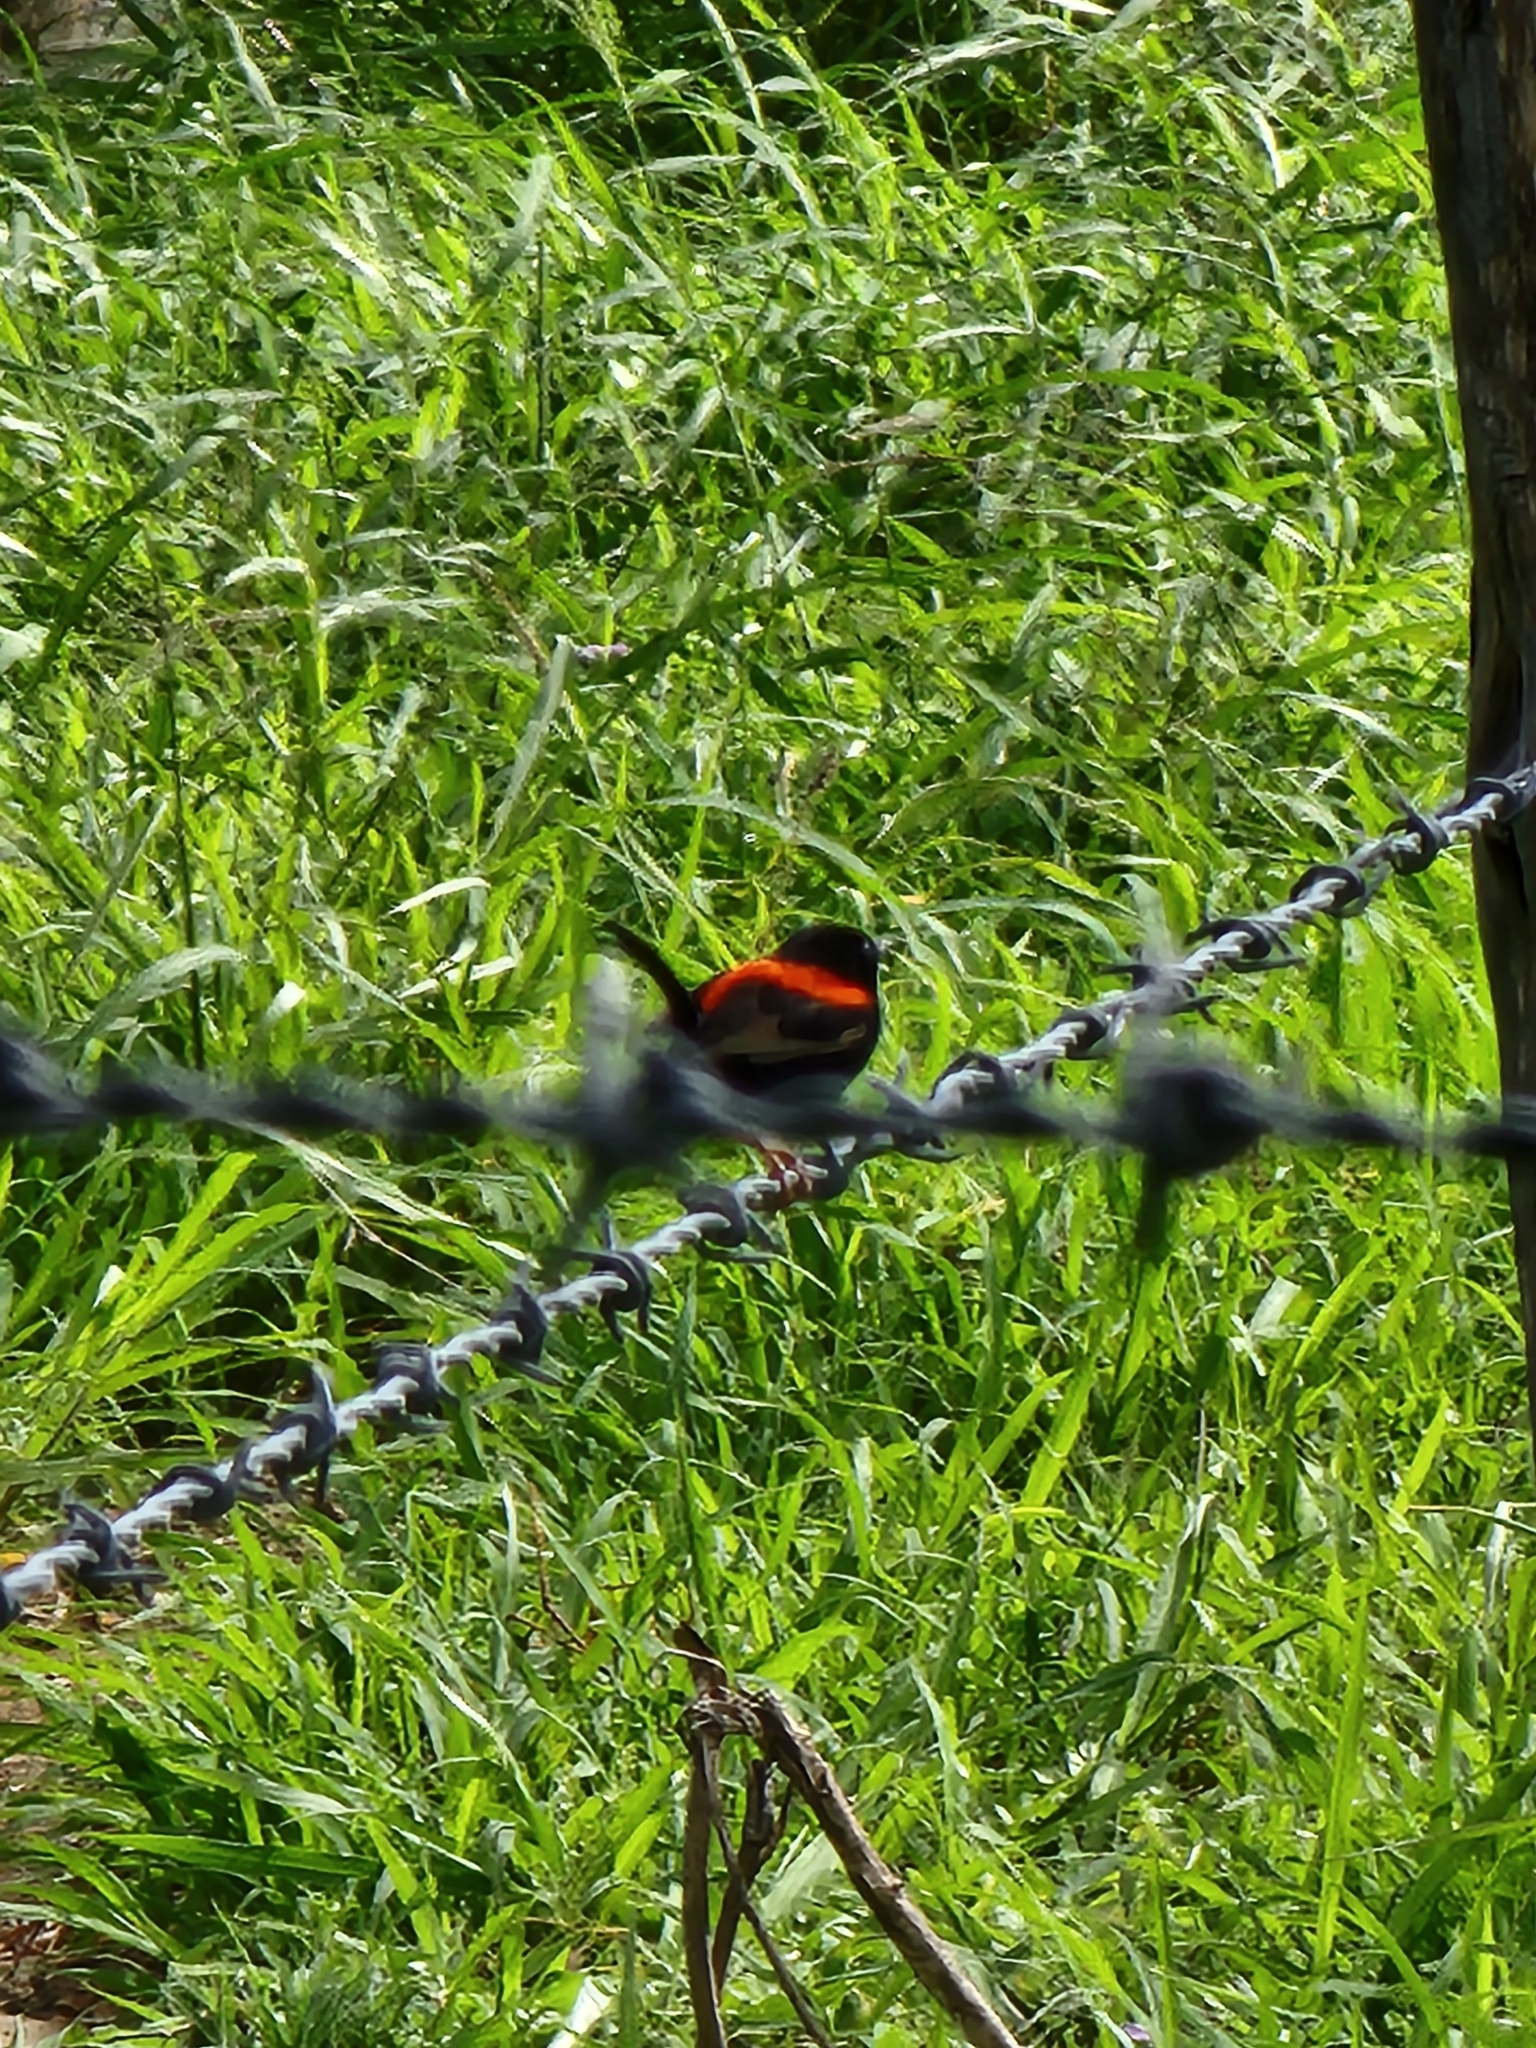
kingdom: Animalia
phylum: Chordata
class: Aves
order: Passeriformes
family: Maluridae
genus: Malurus
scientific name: Malurus melanocephalus
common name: Red-backed fairywren
